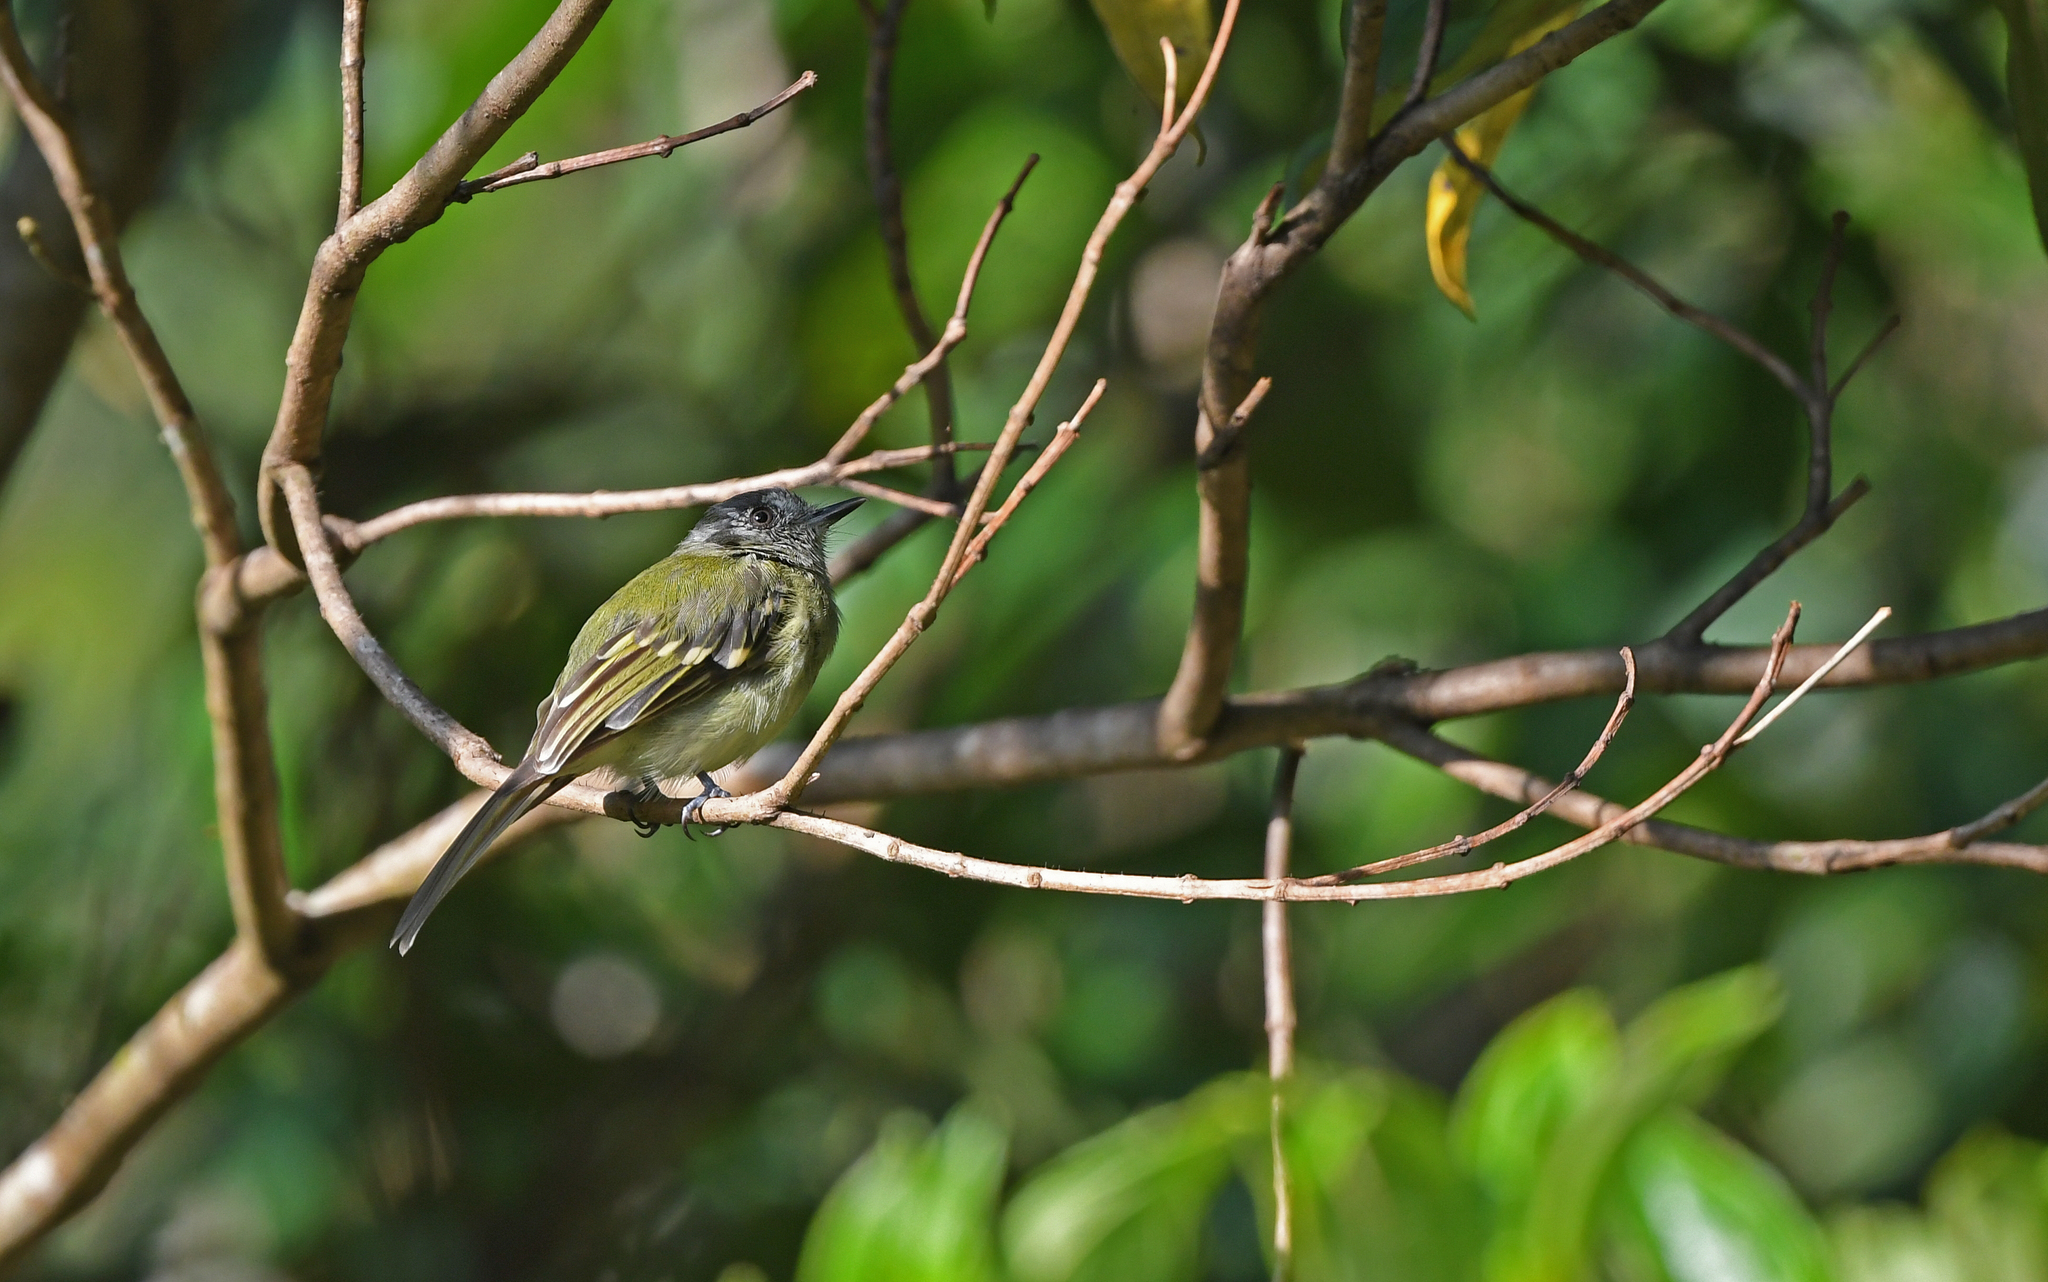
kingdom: Animalia
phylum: Chordata
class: Aves
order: Passeriformes
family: Tyrannidae
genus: Leptopogon
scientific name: Leptopogon superciliaris
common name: Slaty-capped flycatcher
